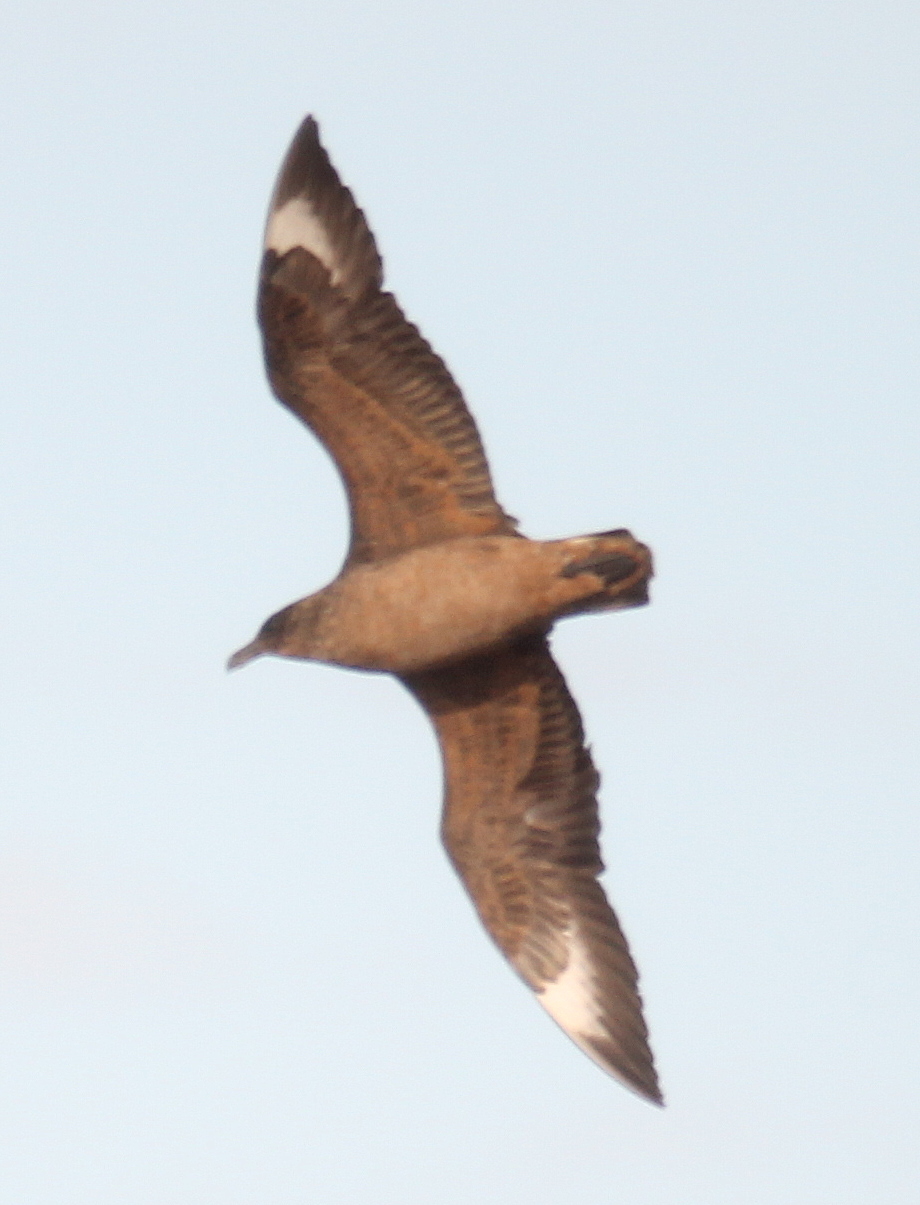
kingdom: Animalia
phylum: Chordata
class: Aves
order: Charadriiformes
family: Stercorariidae
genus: Stercorarius
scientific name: Stercorarius chilensis
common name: Chilean skua
